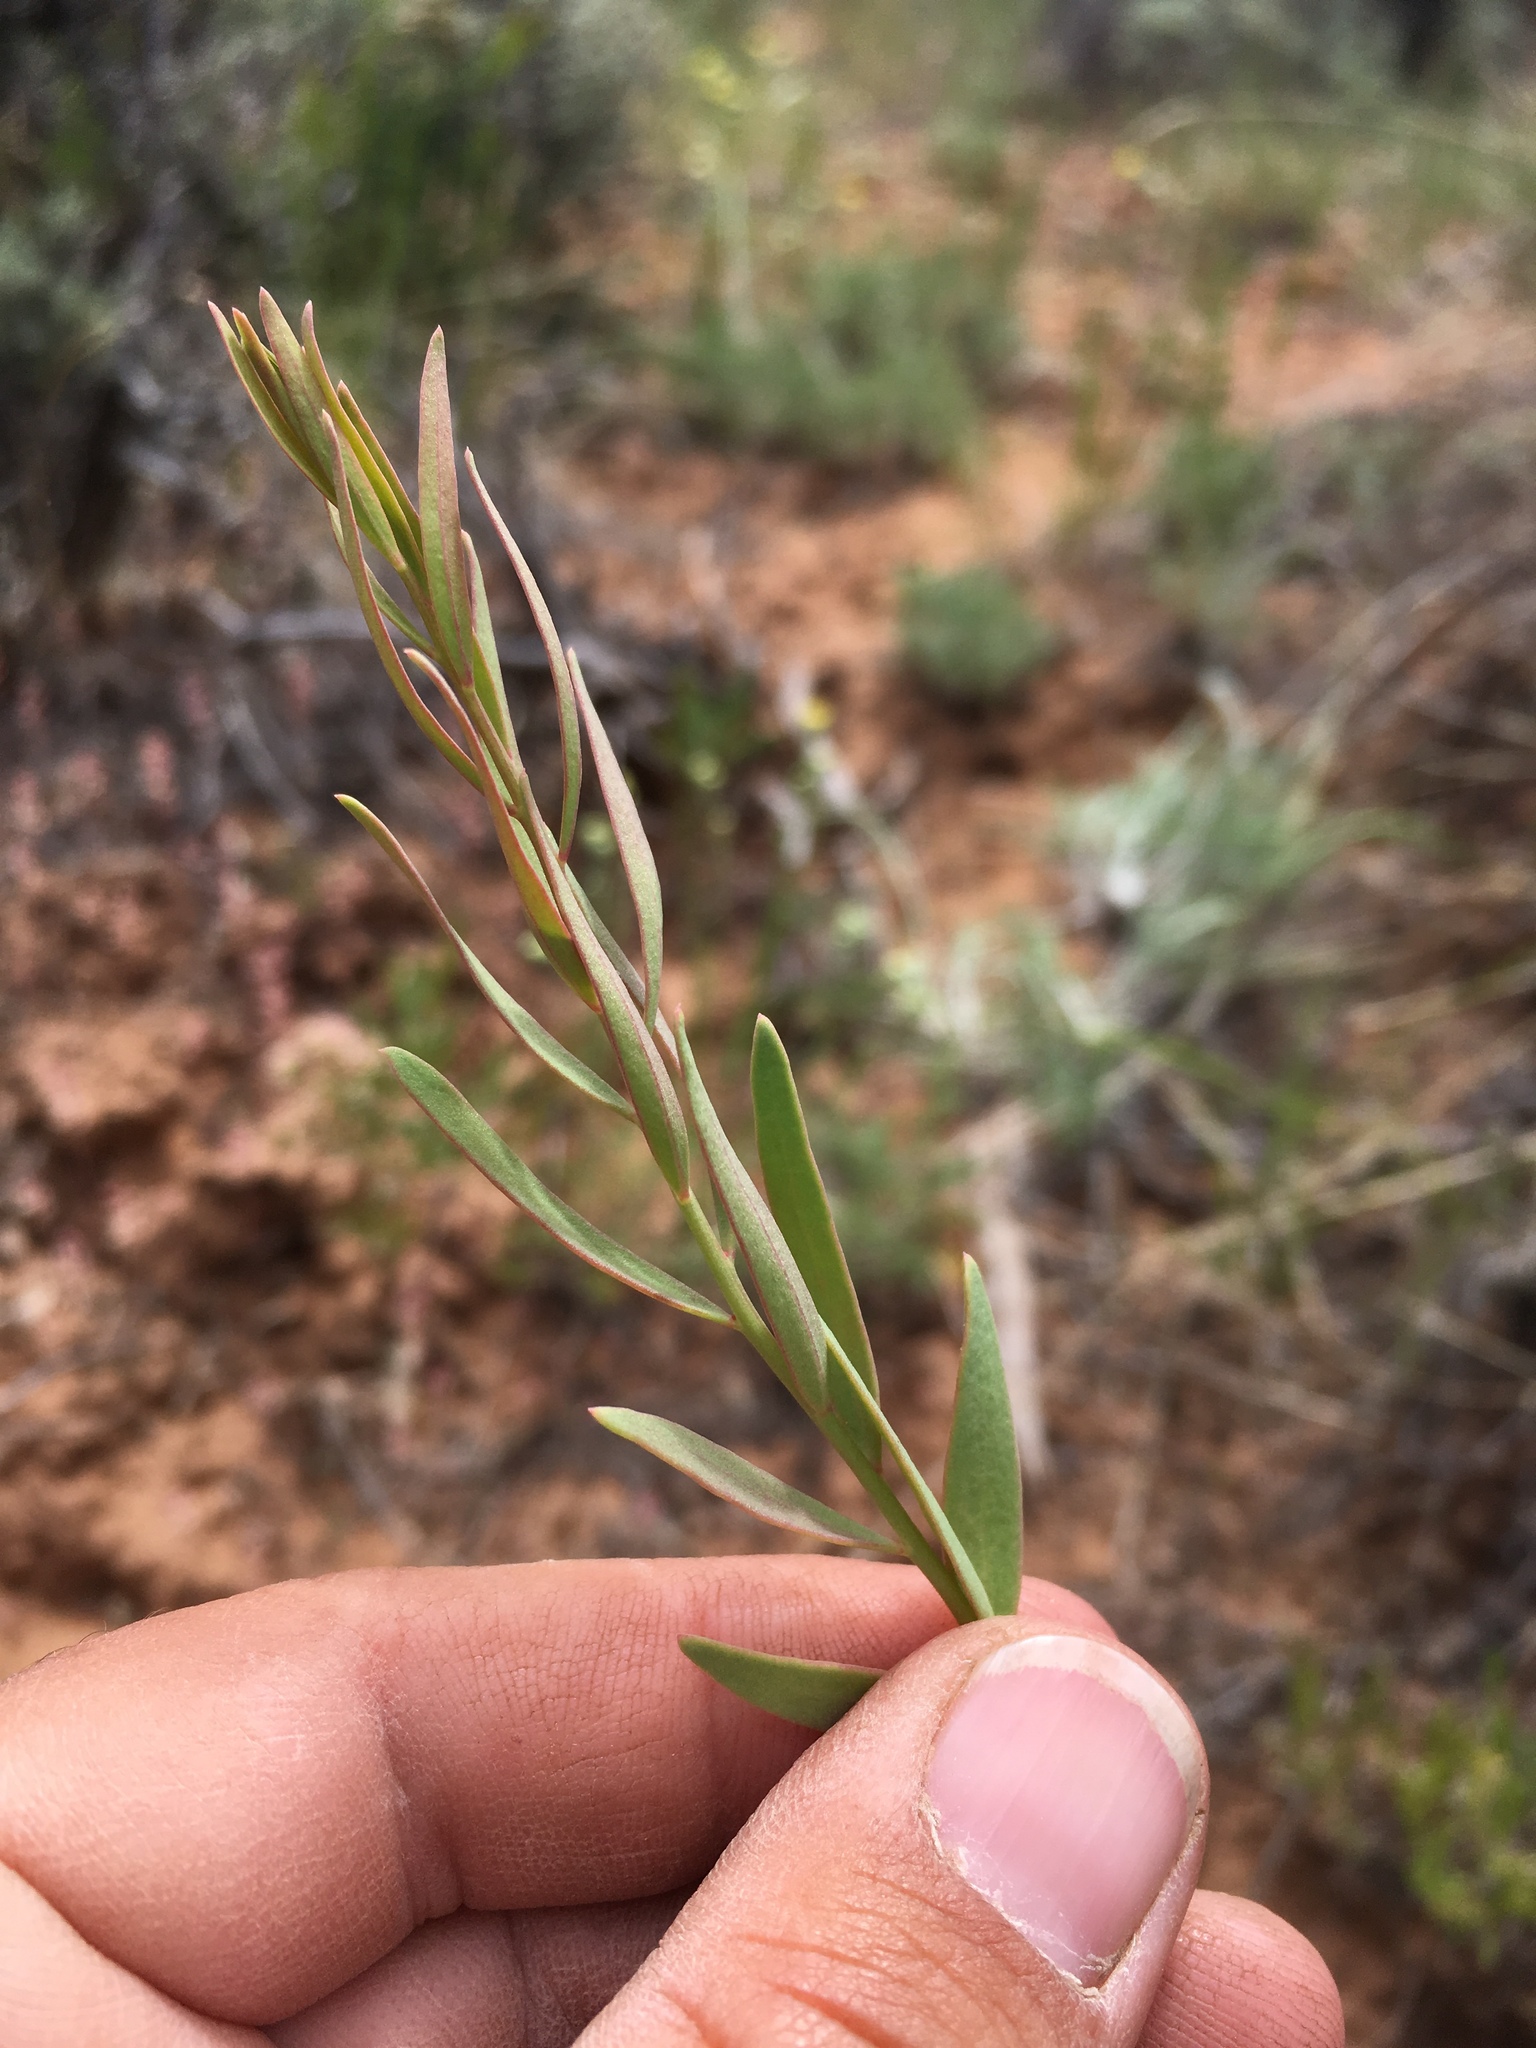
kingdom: Plantae
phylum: Tracheophyta
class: Magnoliopsida
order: Santalales
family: Comandraceae
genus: Comandra
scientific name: Comandra umbellata
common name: Bastard toadflax
